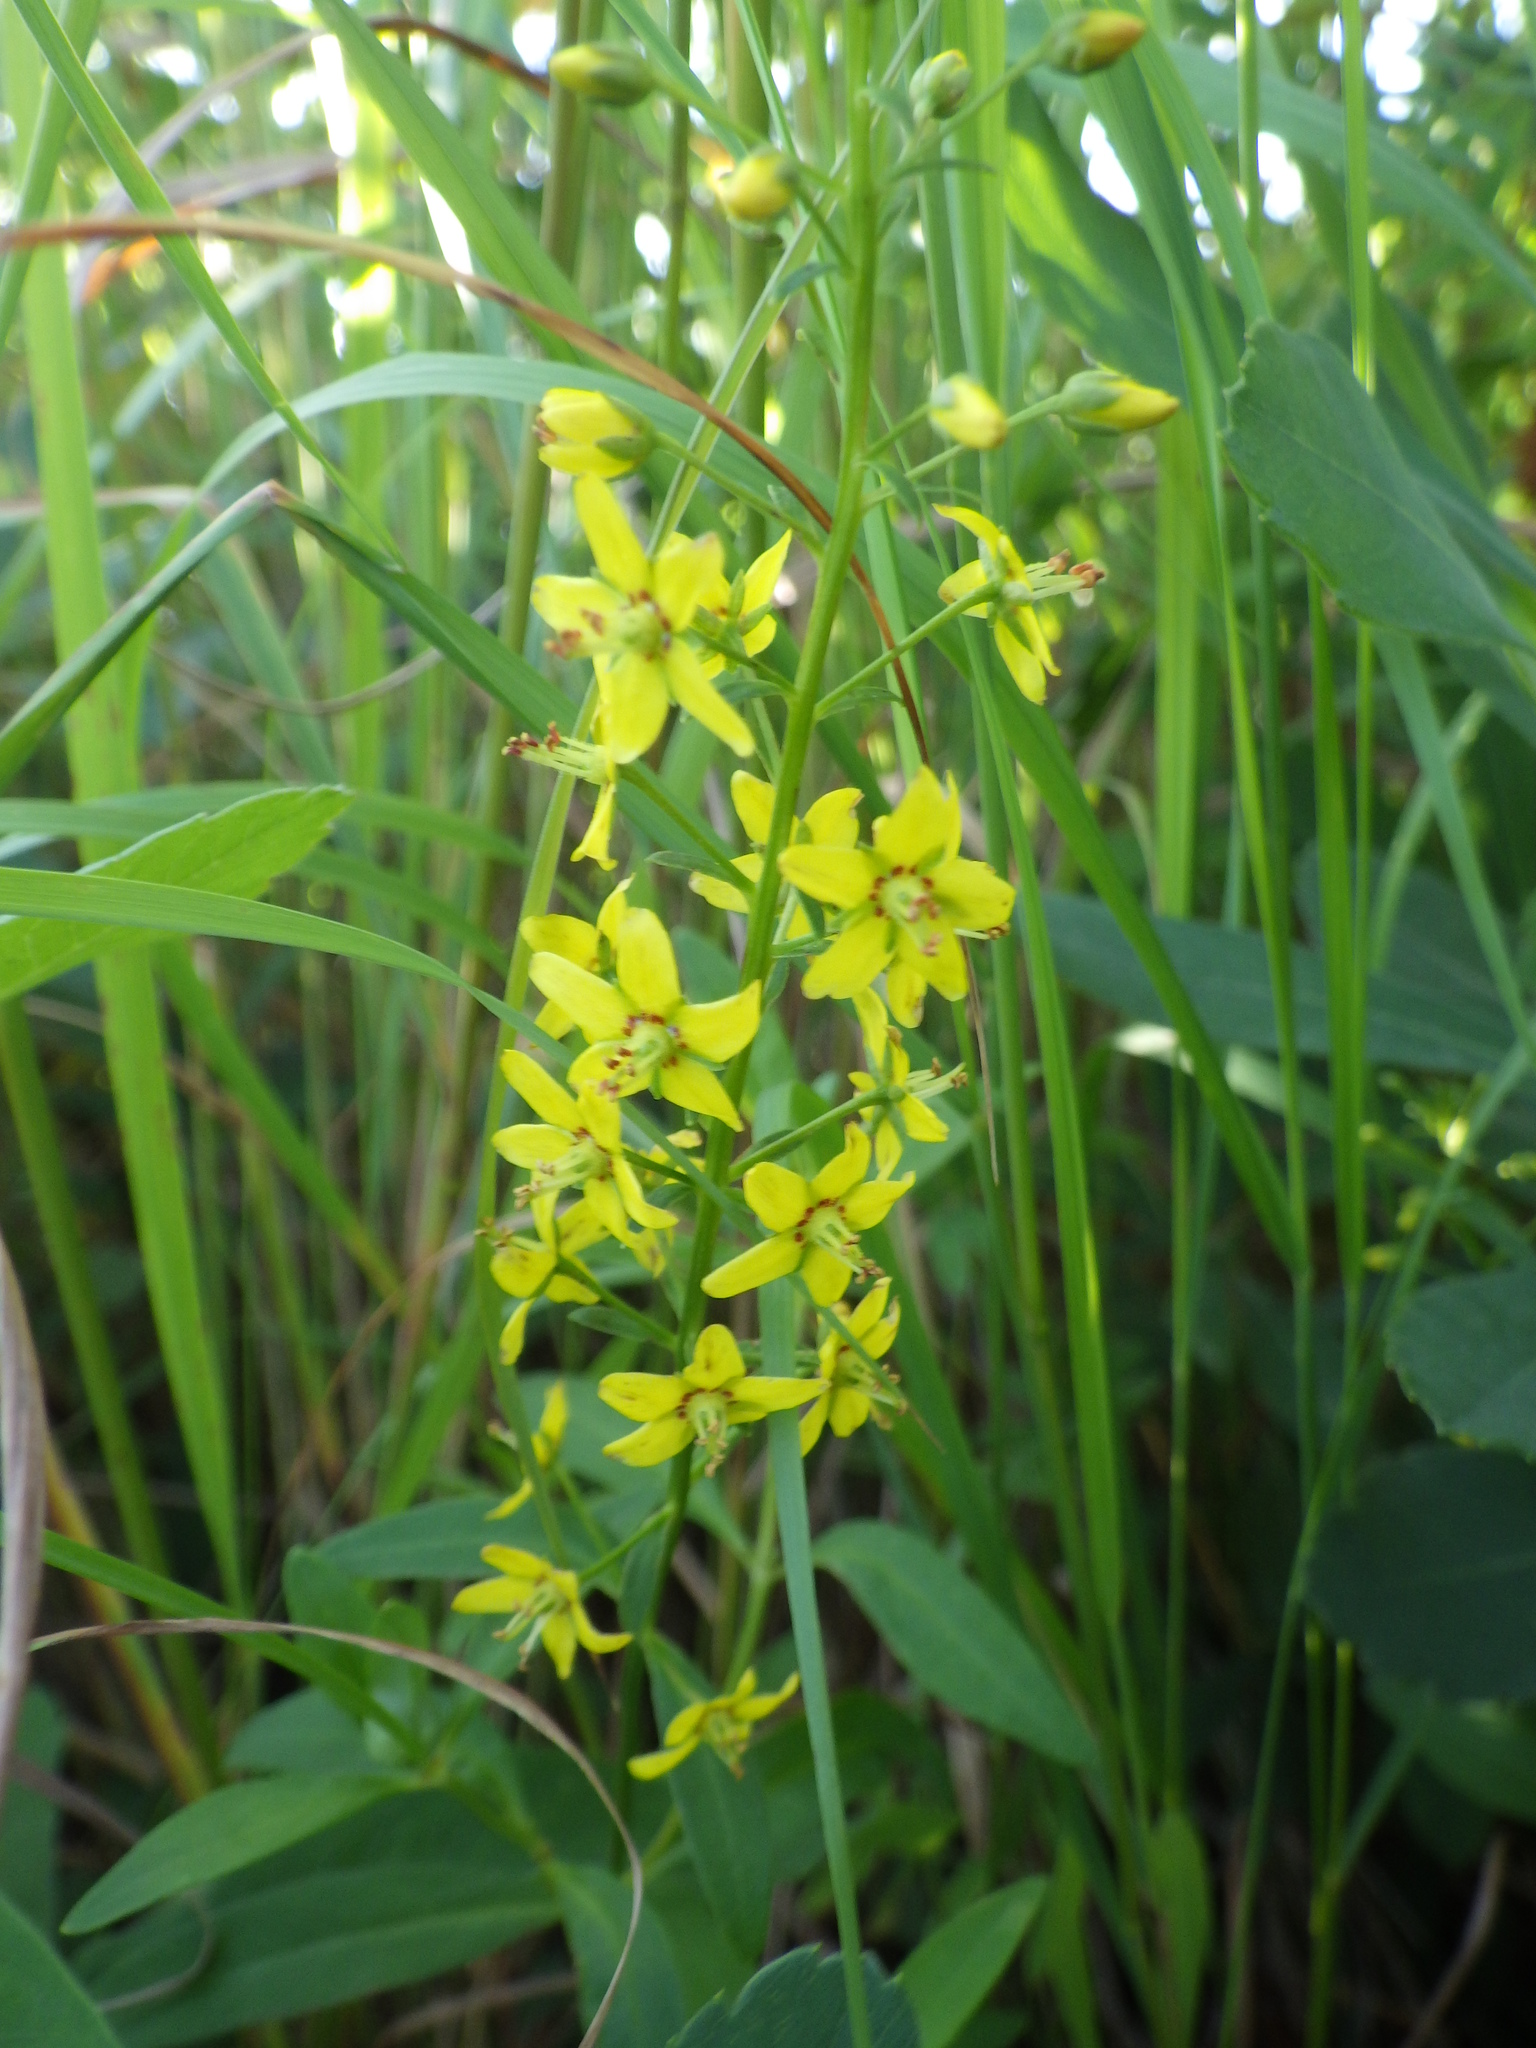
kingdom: Plantae
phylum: Tracheophyta
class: Magnoliopsida
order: Ericales
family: Primulaceae
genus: Lysimachia
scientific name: Lysimachia terrestris
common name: Lake loosestrife
